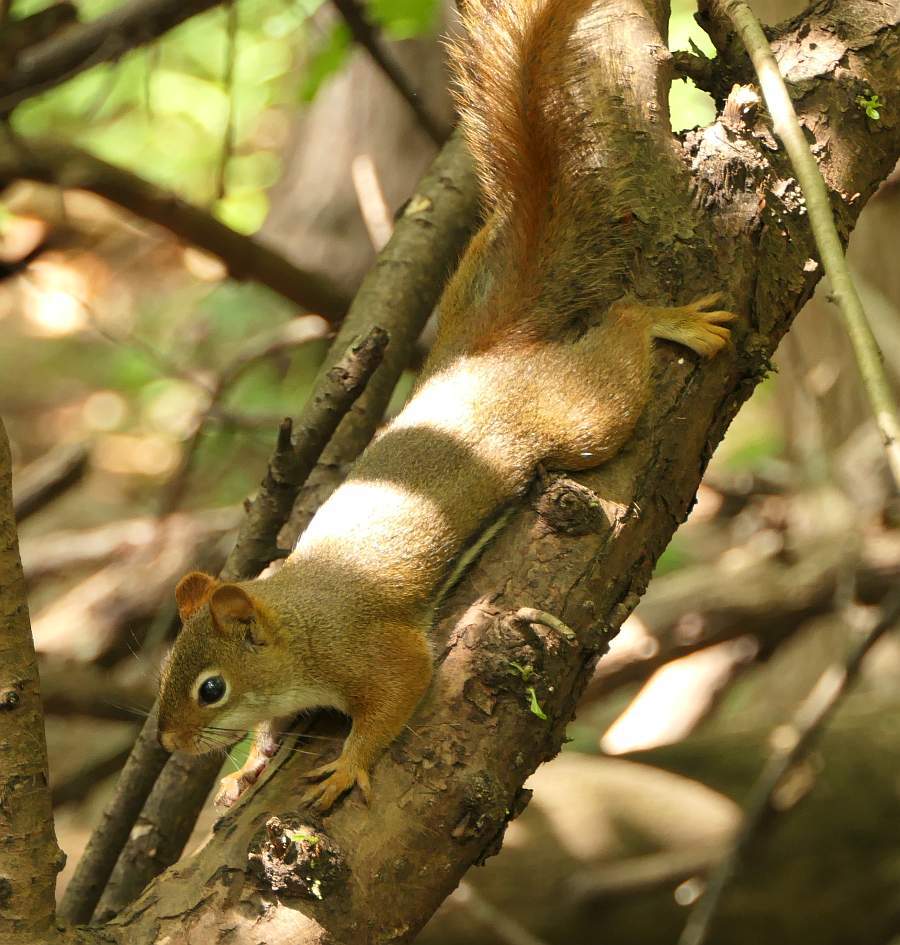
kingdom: Animalia
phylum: Chordata
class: Mammalia
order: Rodentia
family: Sciuridae
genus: Tamiasciurus
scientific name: Tamiasciurus hudsonicus
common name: Red squirrel
